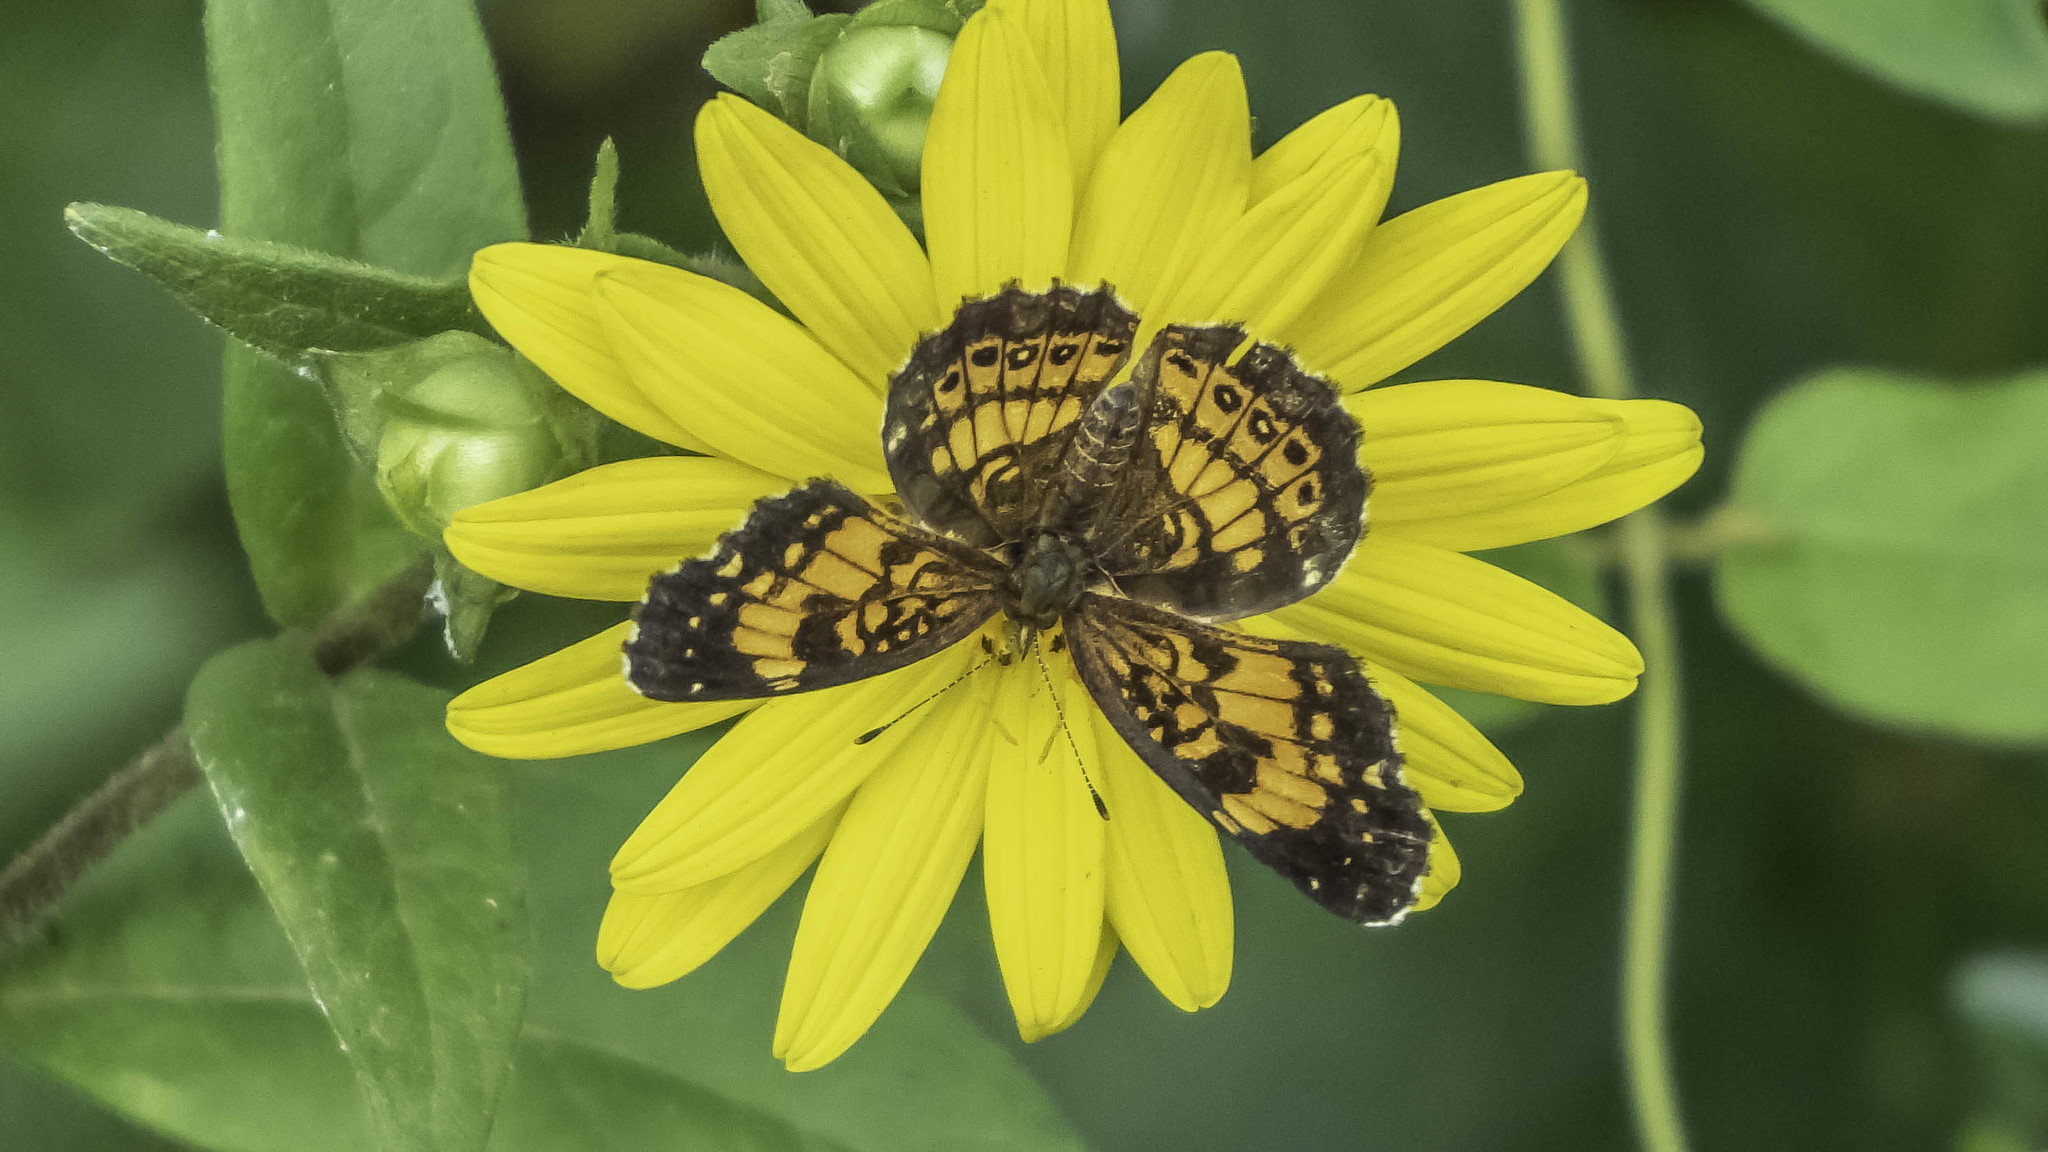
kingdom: Animalia
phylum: Arthropoda
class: Insecta
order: Lepidoptera
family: Nymphalidae
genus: Chlosyne
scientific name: Chlosyne nycteis
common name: Silvery checkerspot
